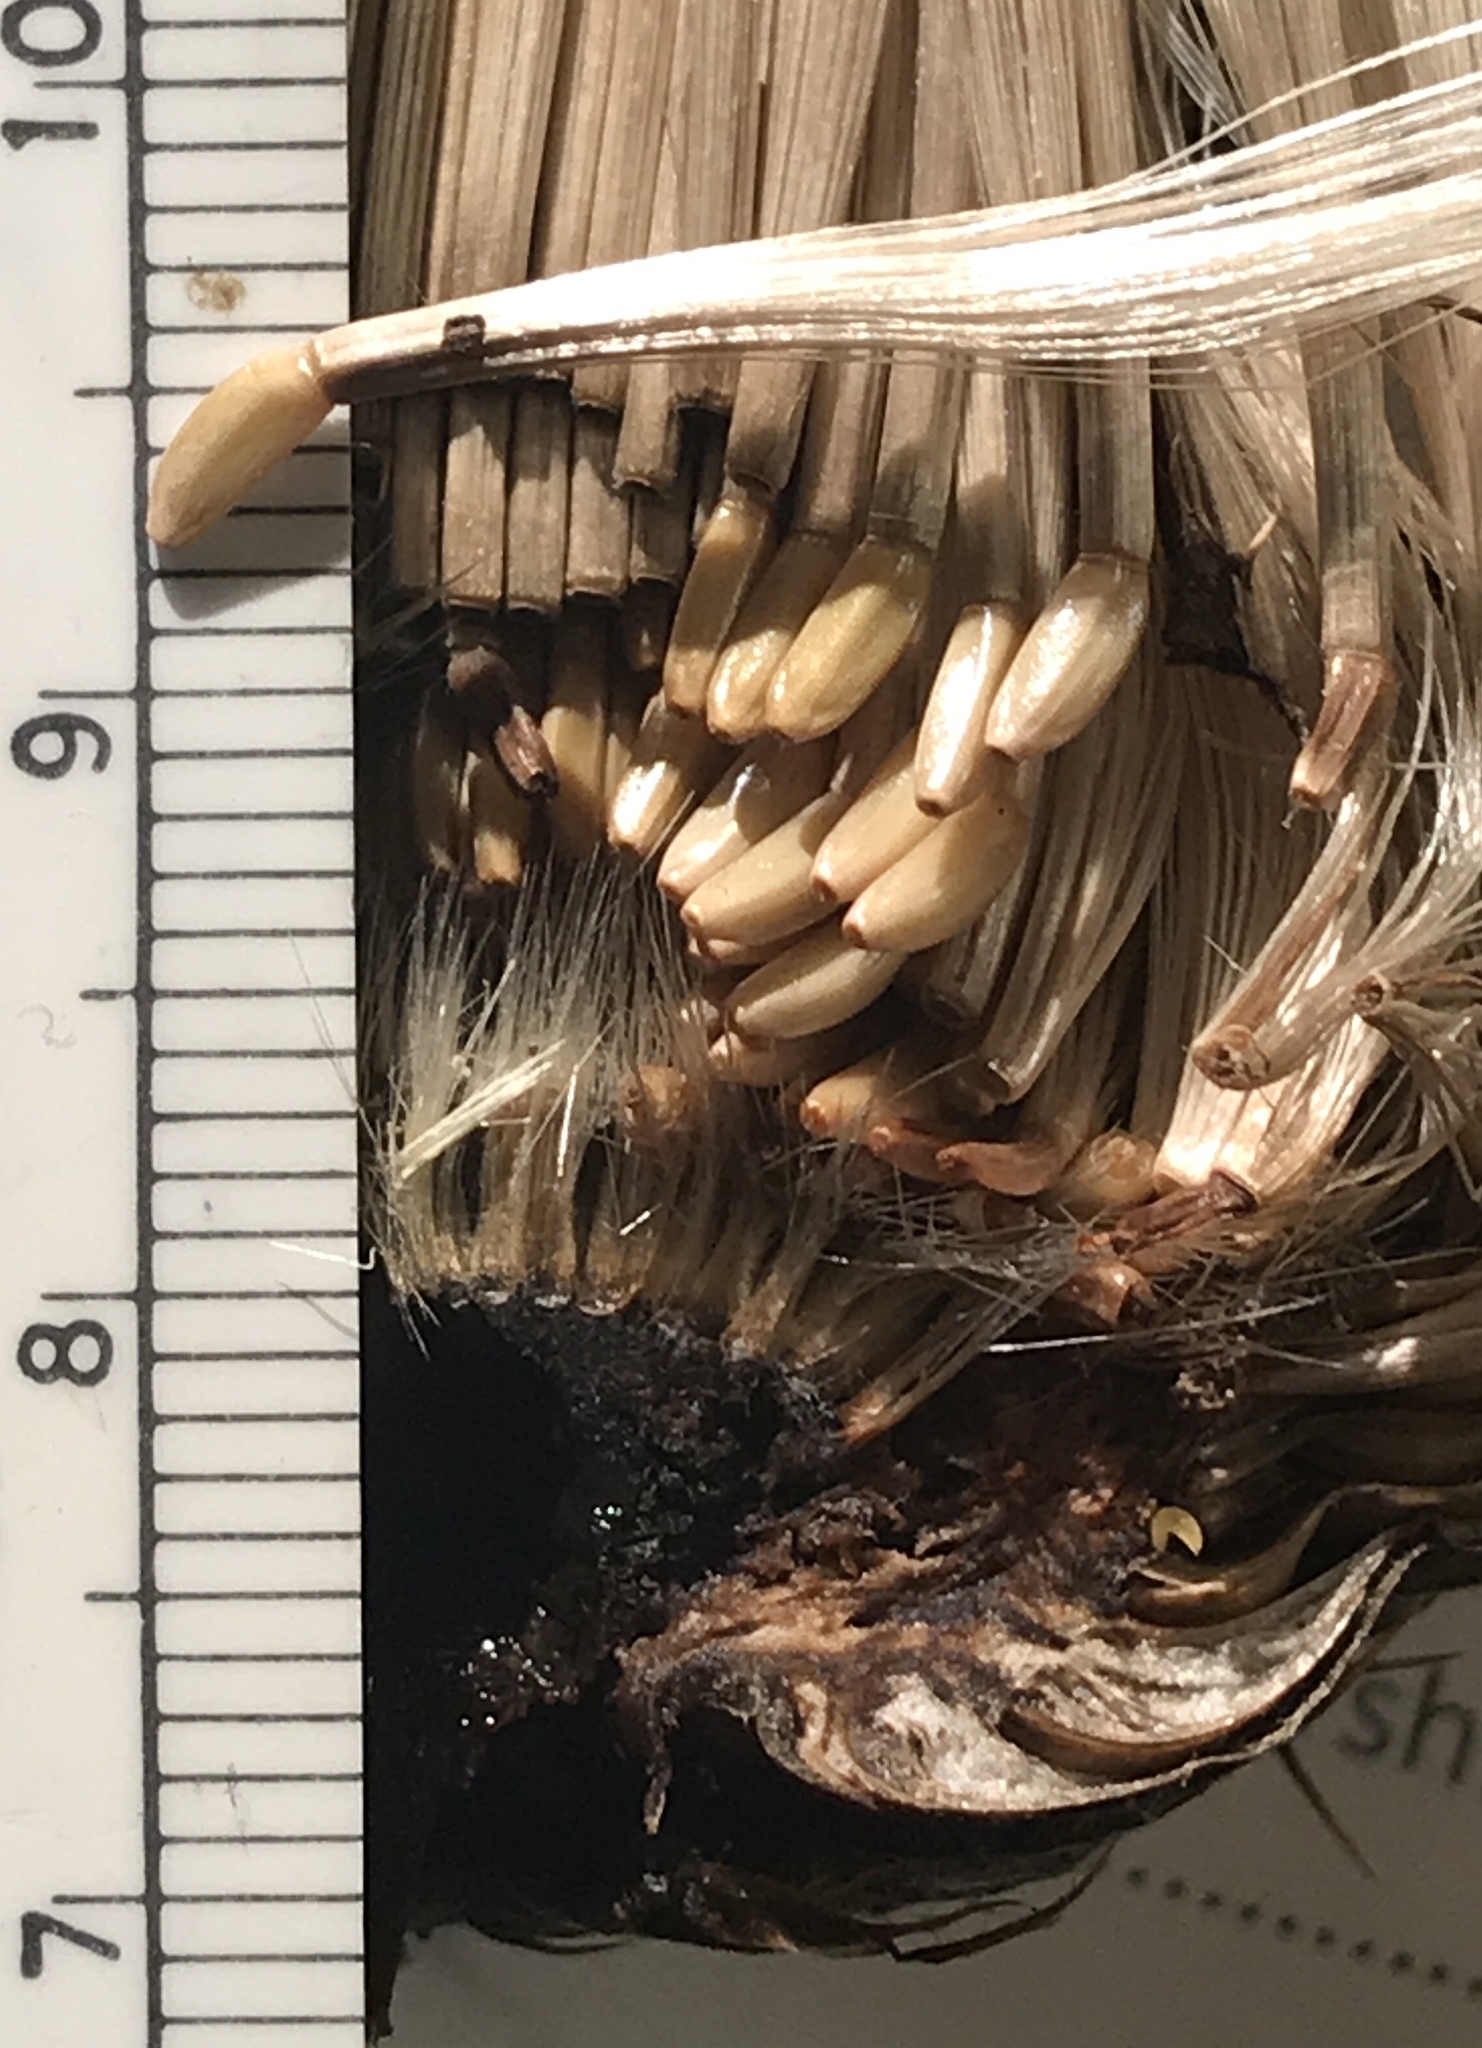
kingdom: Plantae
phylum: Tracheophyta
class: Magnoliopsida
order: Asterales
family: Asteraceae
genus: Cirsium
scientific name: Cirsium pumilum
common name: Pasture thistle
